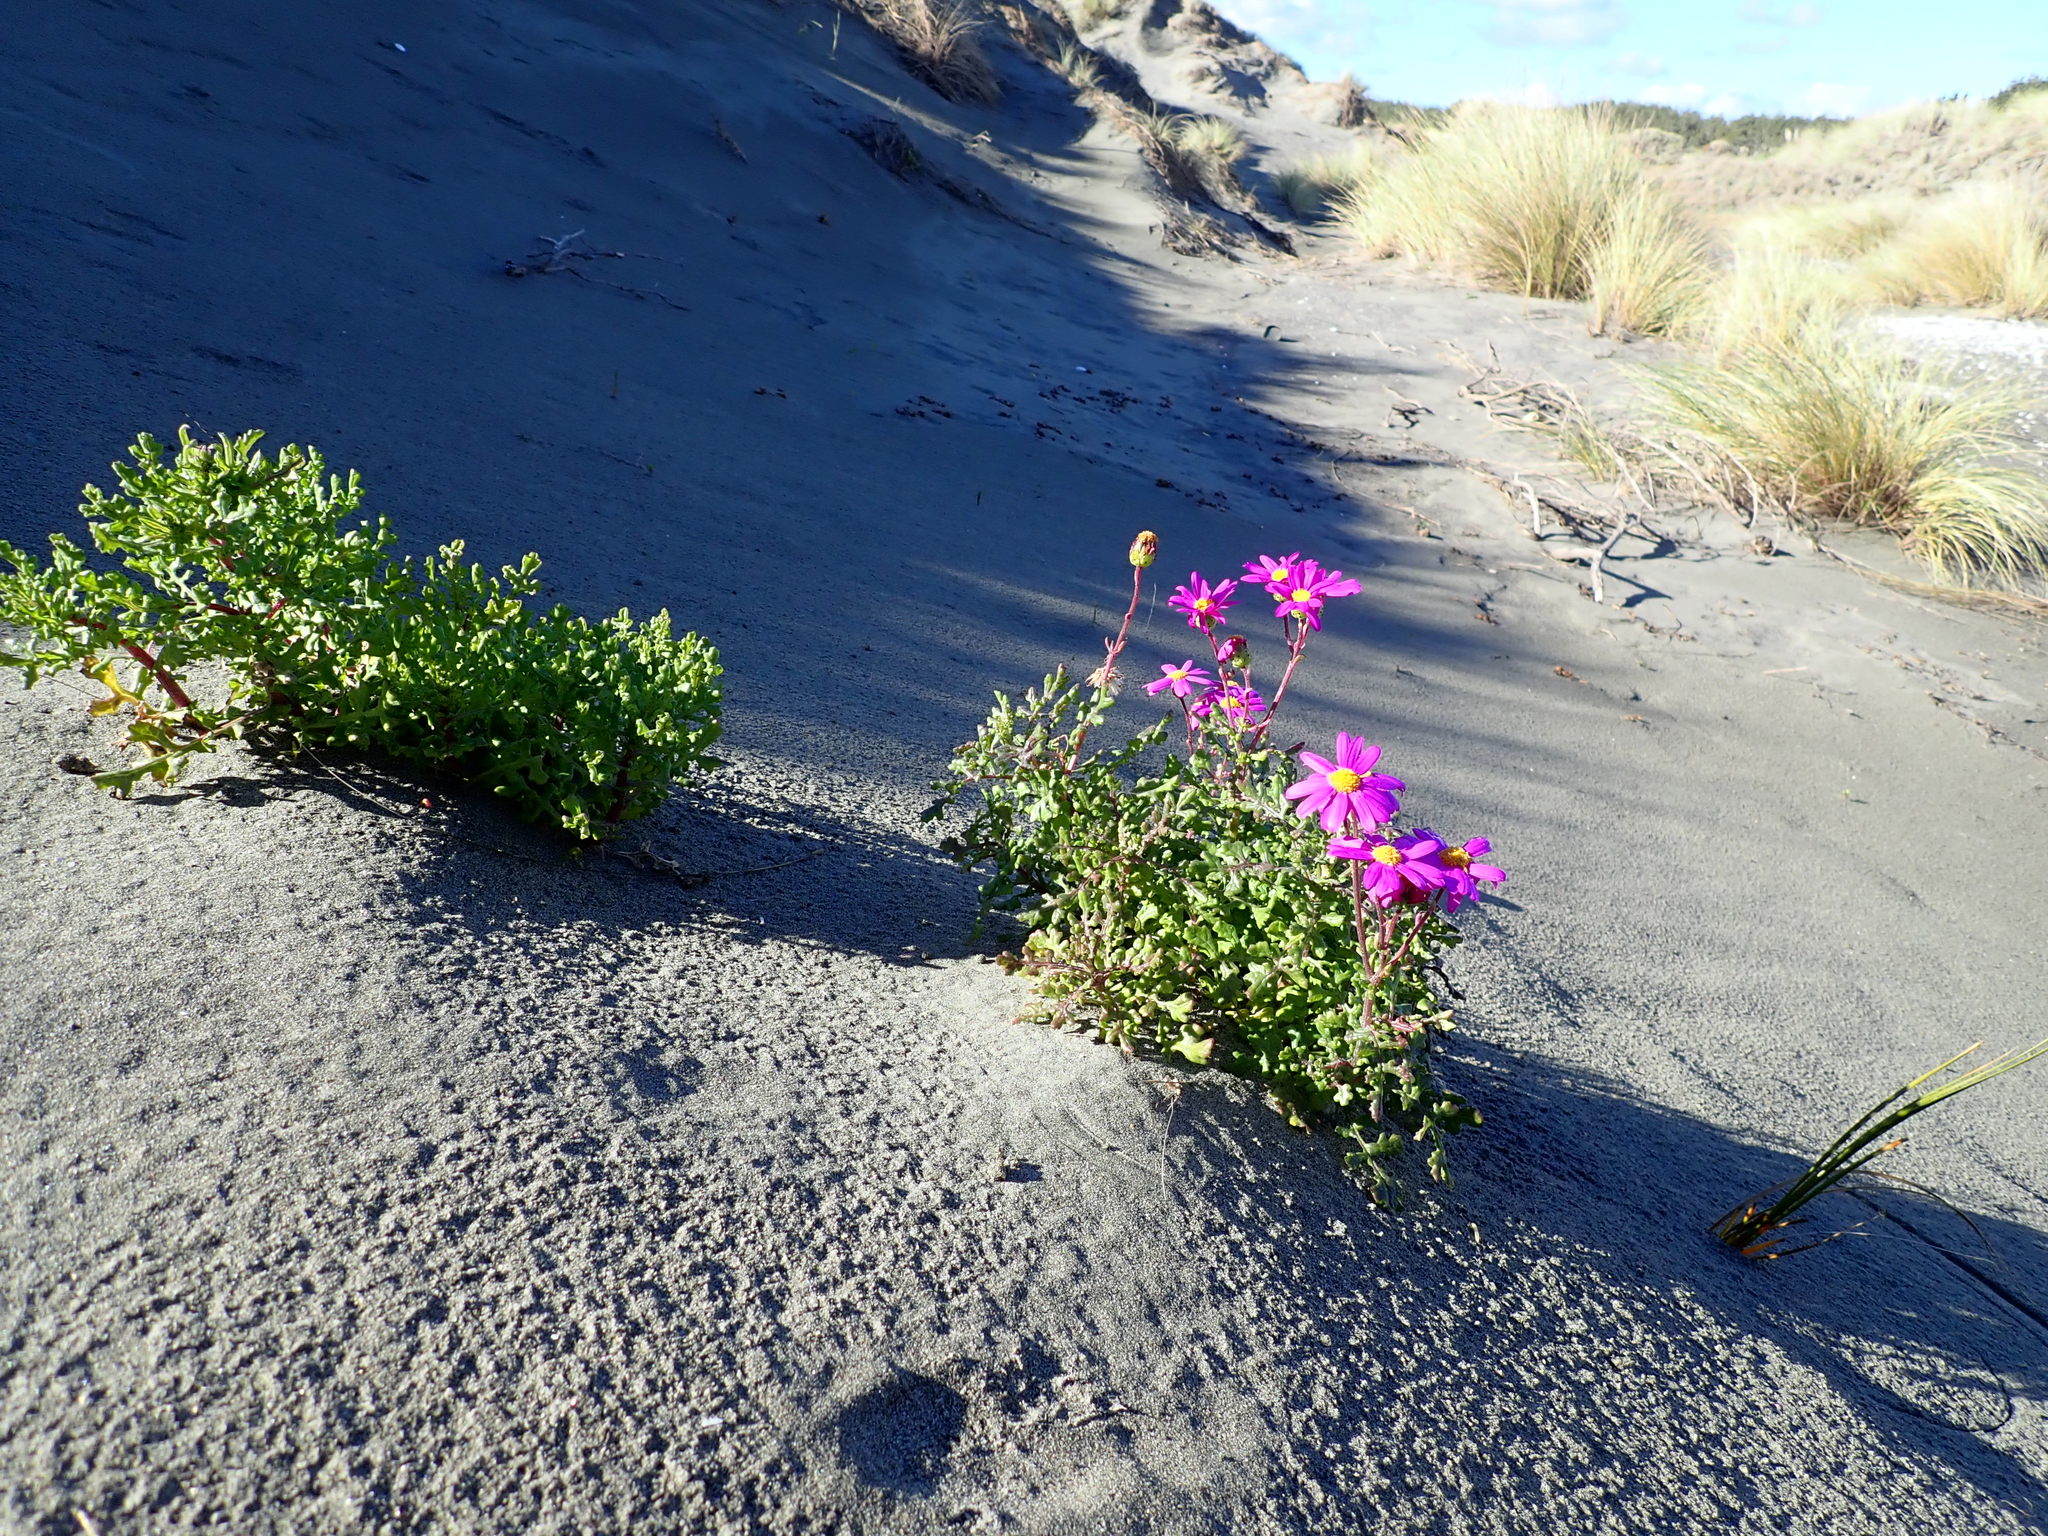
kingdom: Plantae
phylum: Tracheophyta
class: Magnoliopsida
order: Asterales
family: Asteraceae
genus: Senecio
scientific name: Senecio elegans
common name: Purple groundsel
